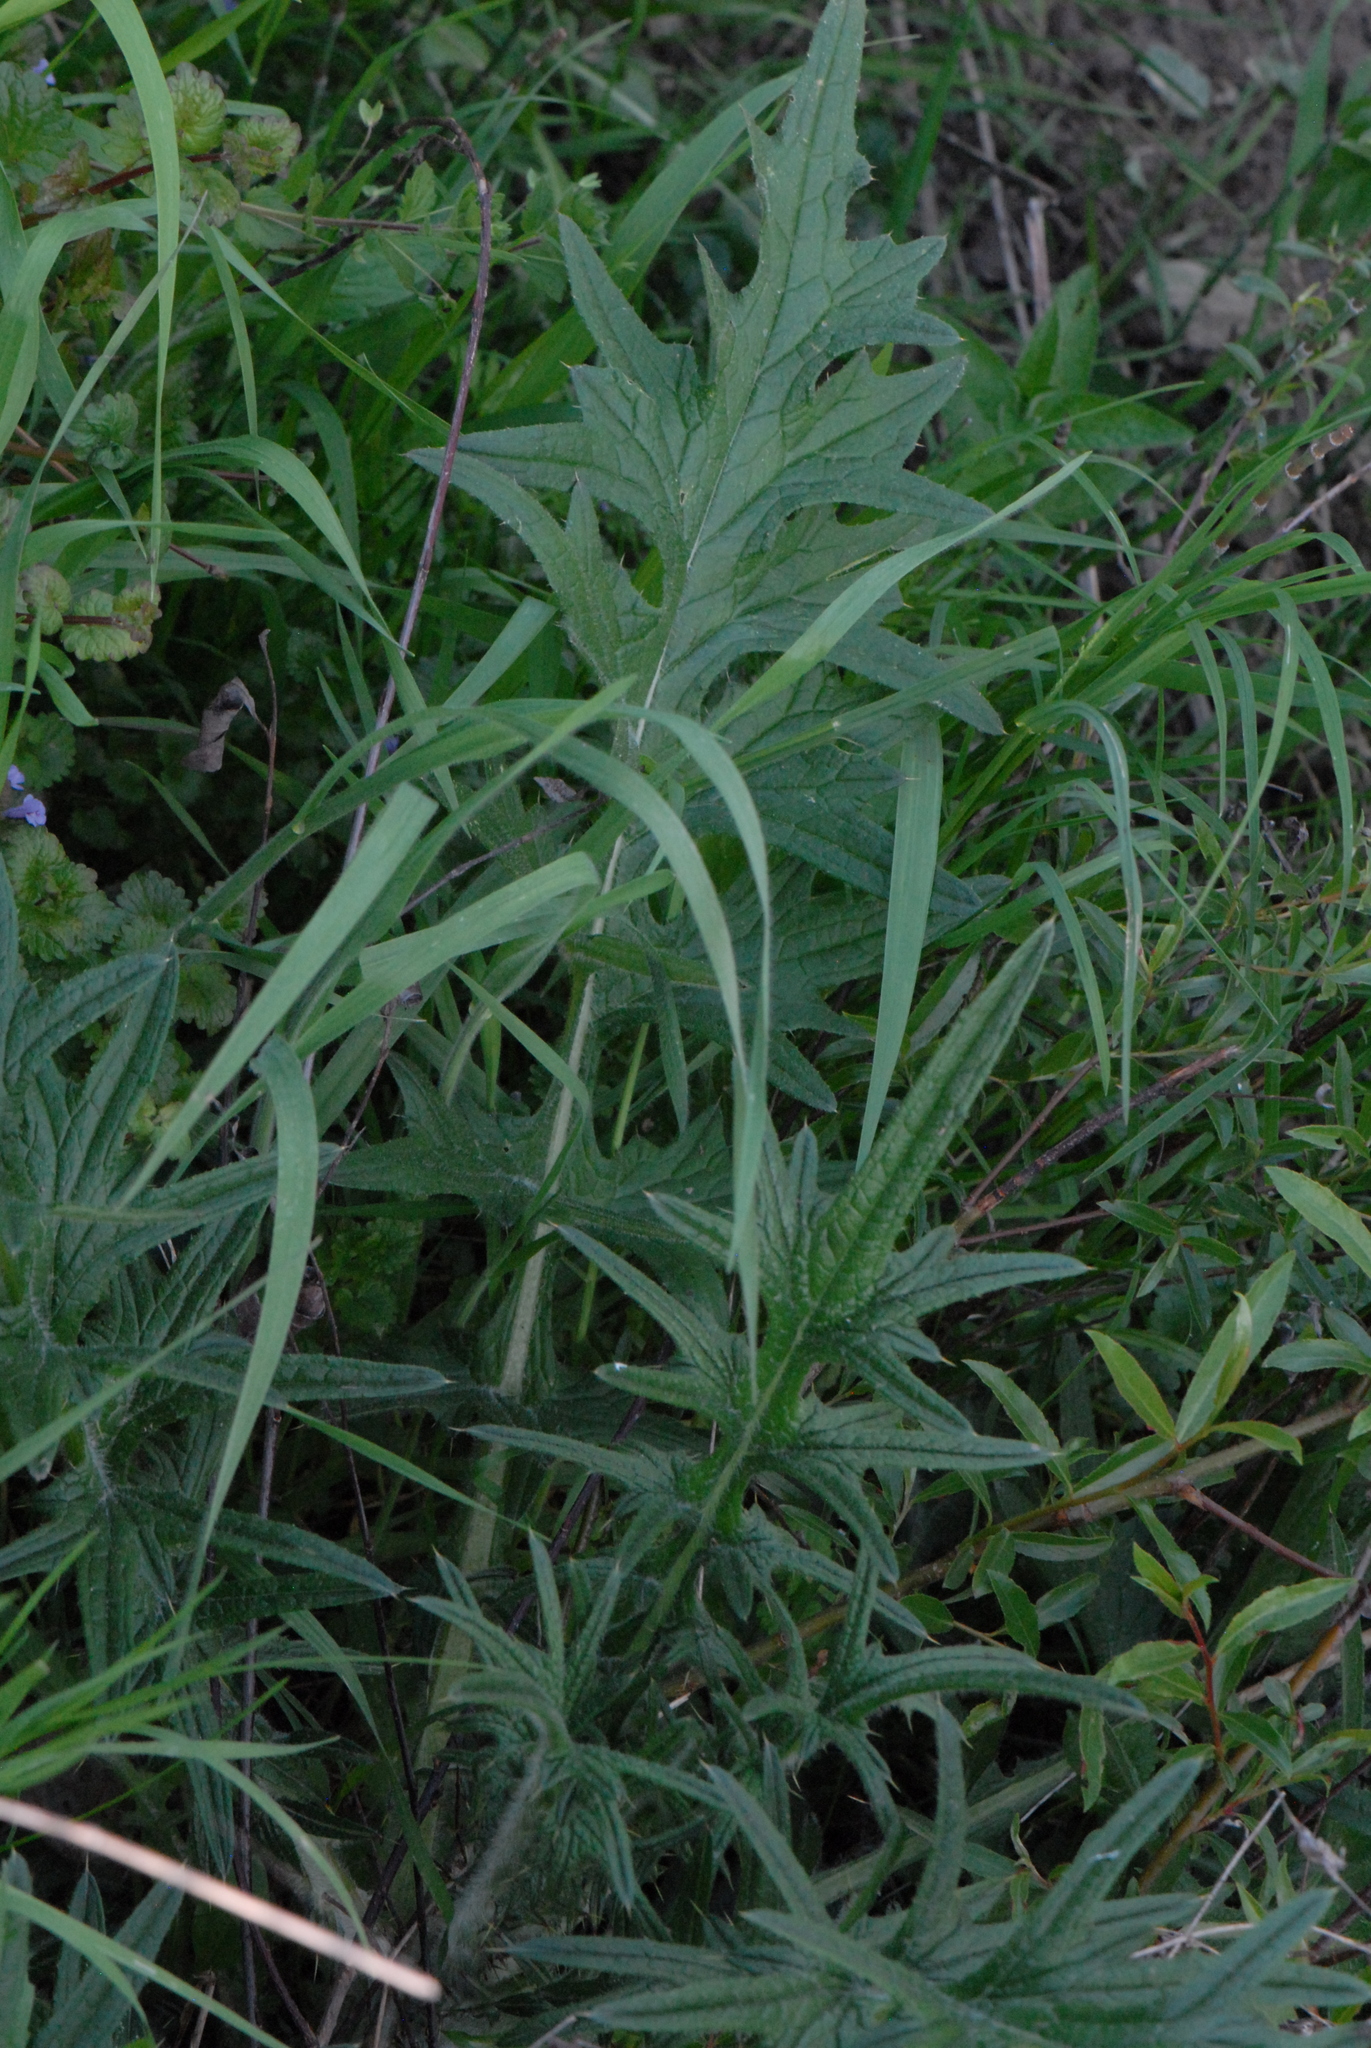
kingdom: Plantae
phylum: Tracheophyta
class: Magnoliopsida
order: Asterales
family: Asteraceae
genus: Cirsium
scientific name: Cirsium vulgare
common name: Bull thistle
